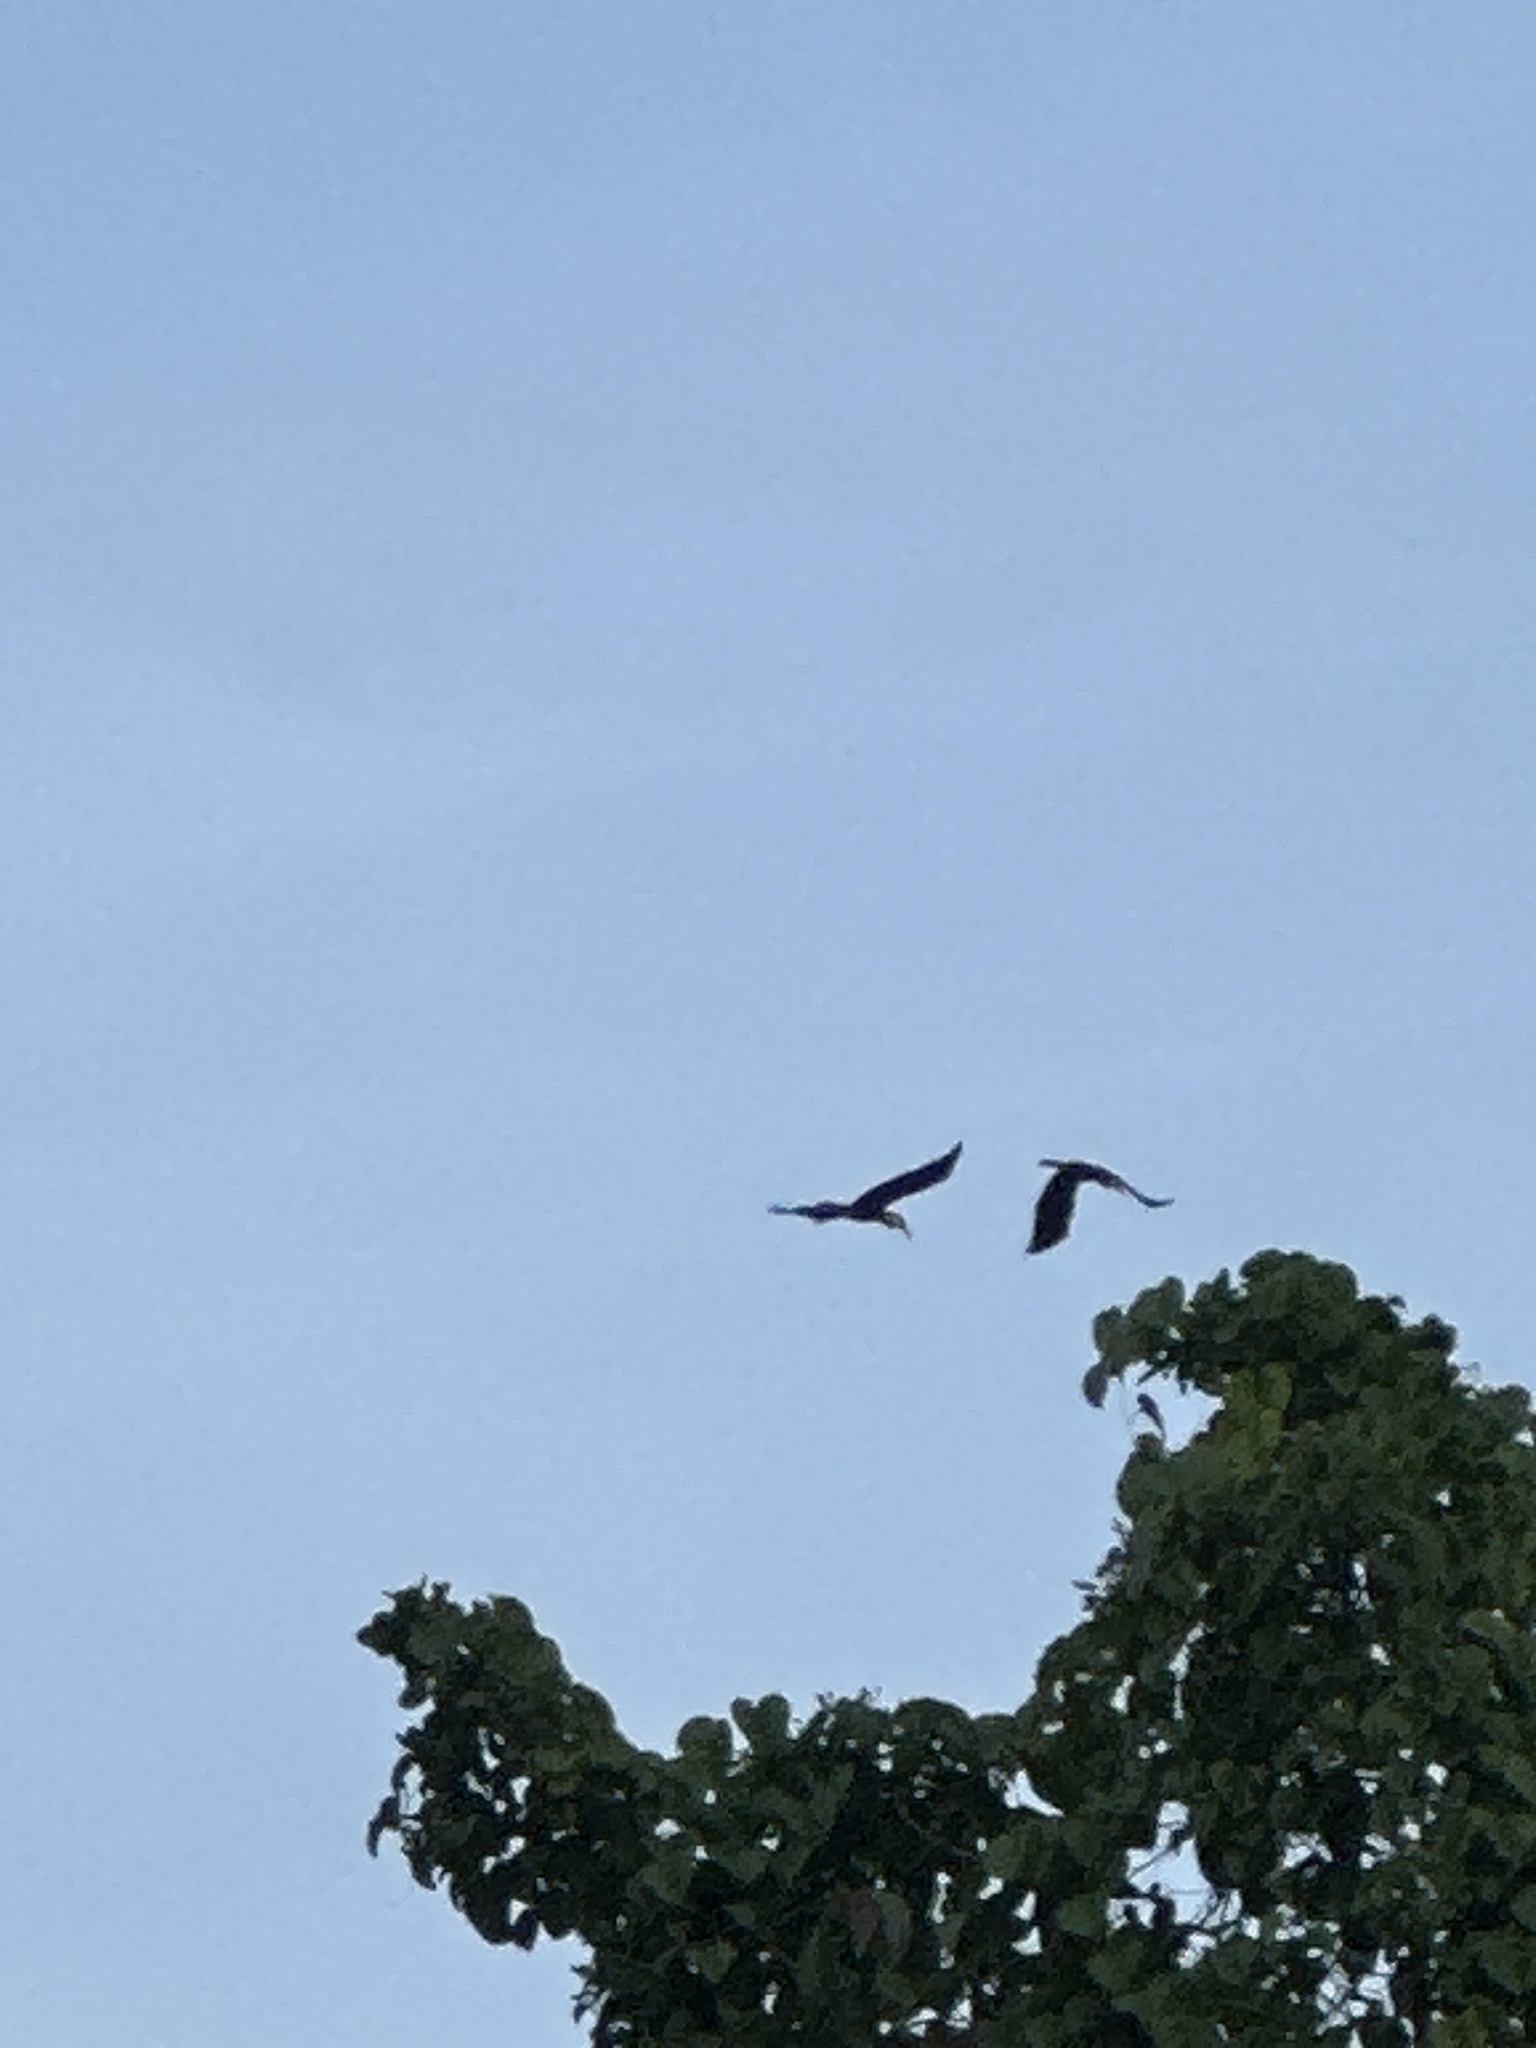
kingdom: Animalia
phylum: Chordata
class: Aves
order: Bucerotiformes
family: Bucerotidae
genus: Rhyticeros
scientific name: Rhyticeros plicatus
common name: Blyth's hornbill
